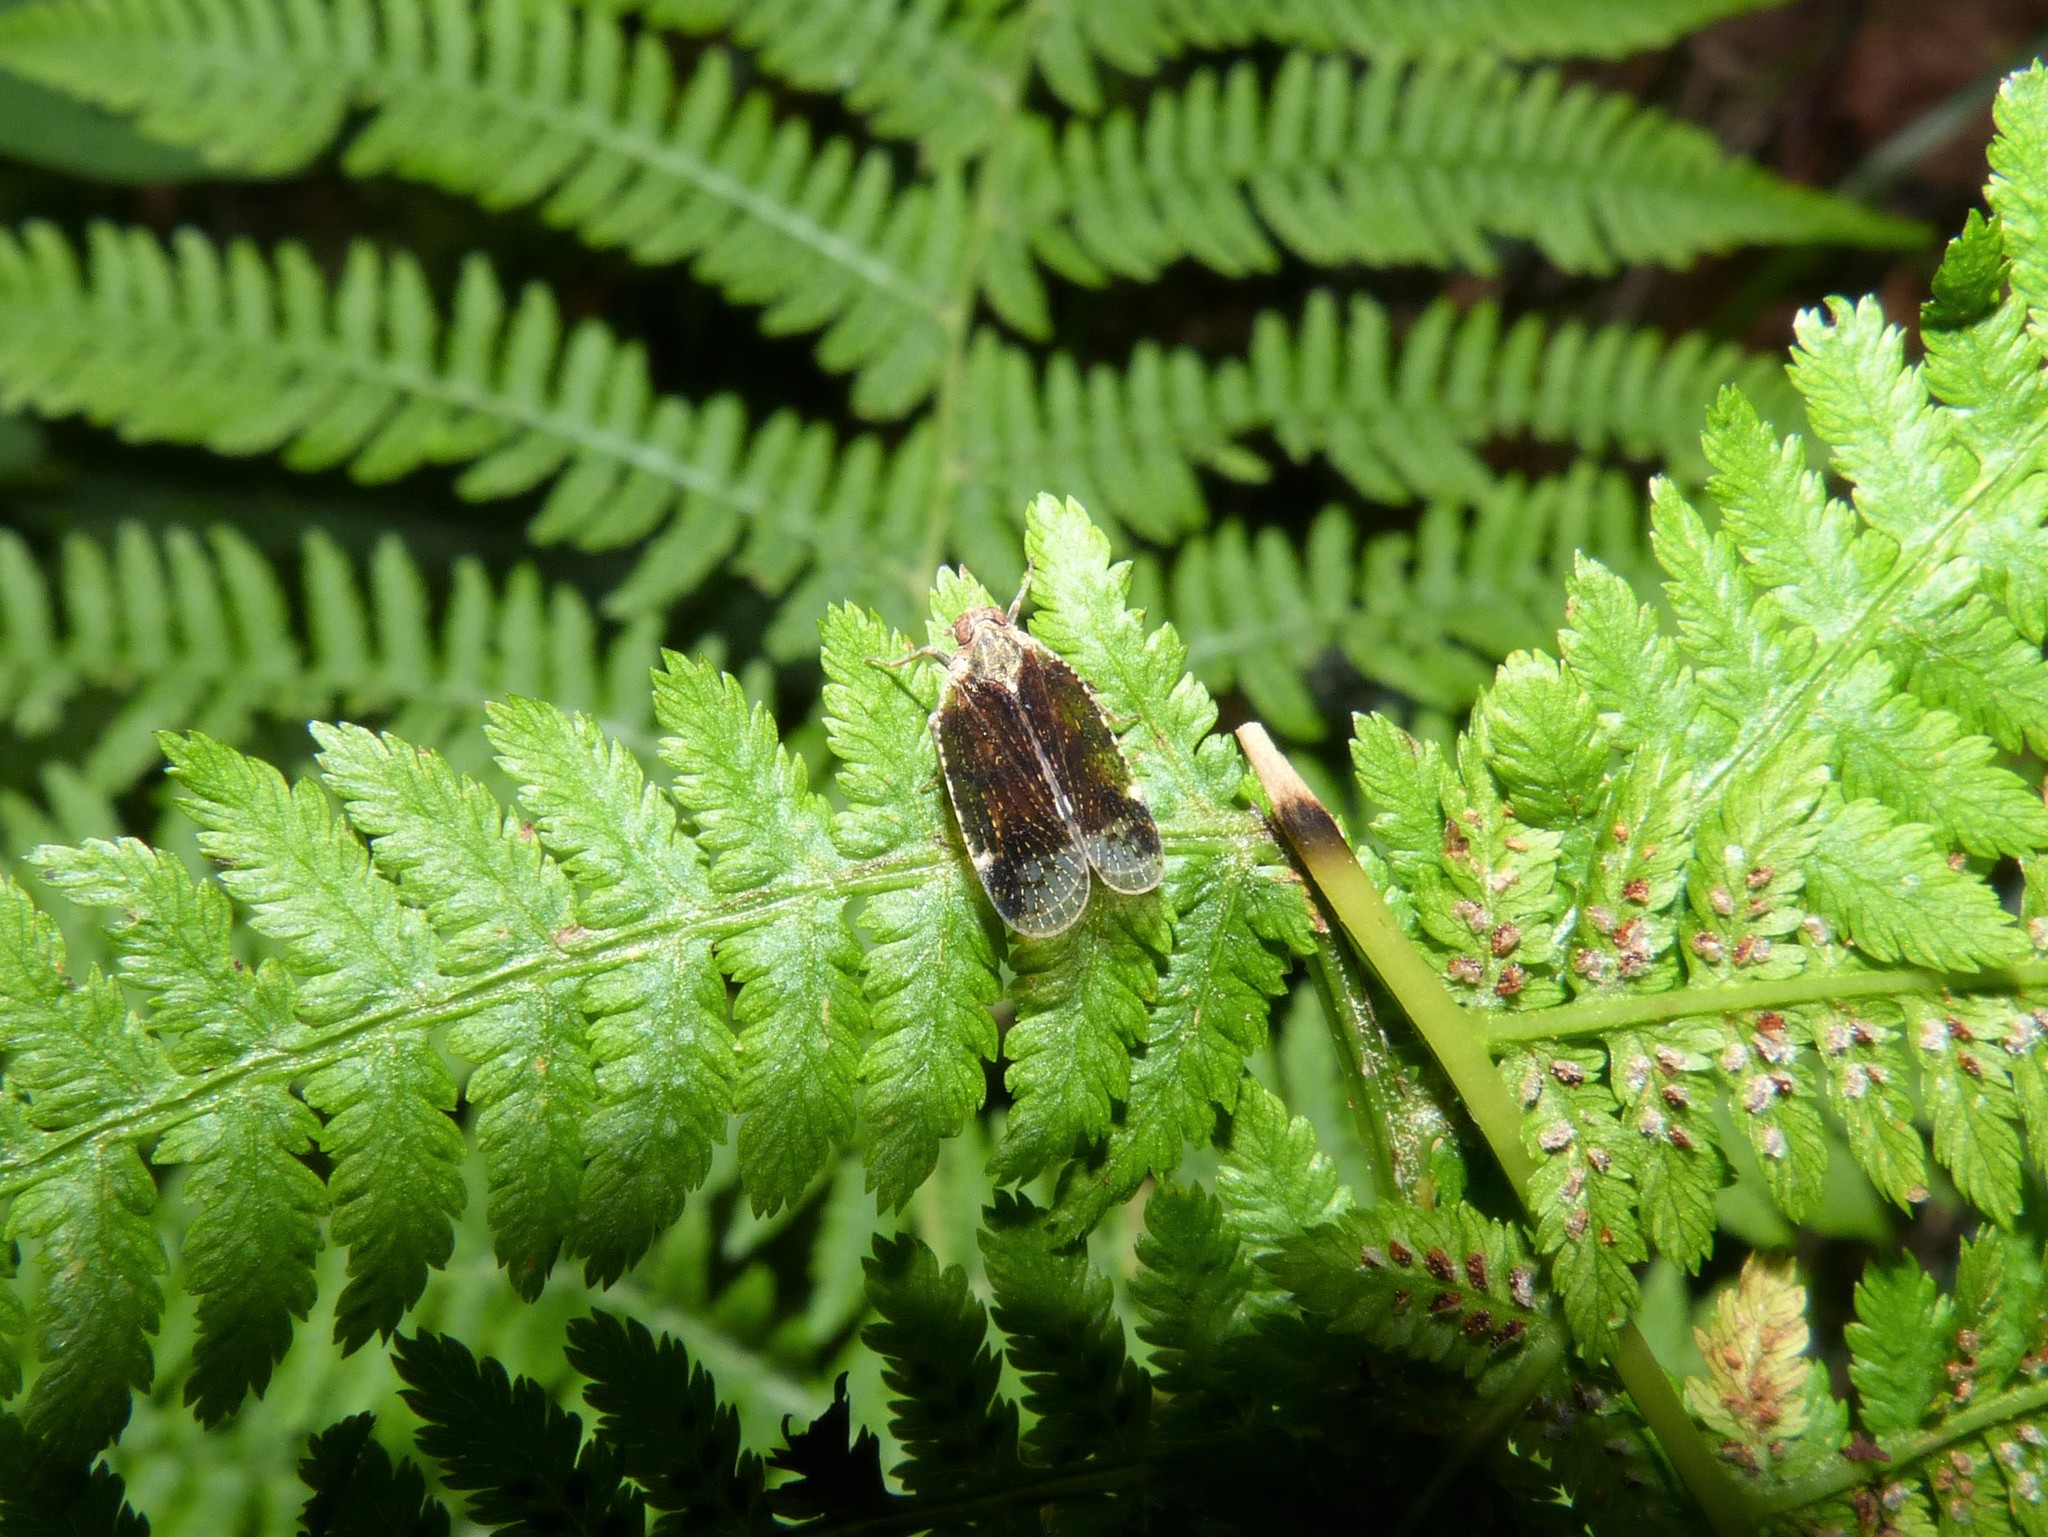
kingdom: Animalia
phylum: Arthropoda
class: Insecta
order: Hemiptera
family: Cixiidae
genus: Cixius
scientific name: Cixius cunicularius
